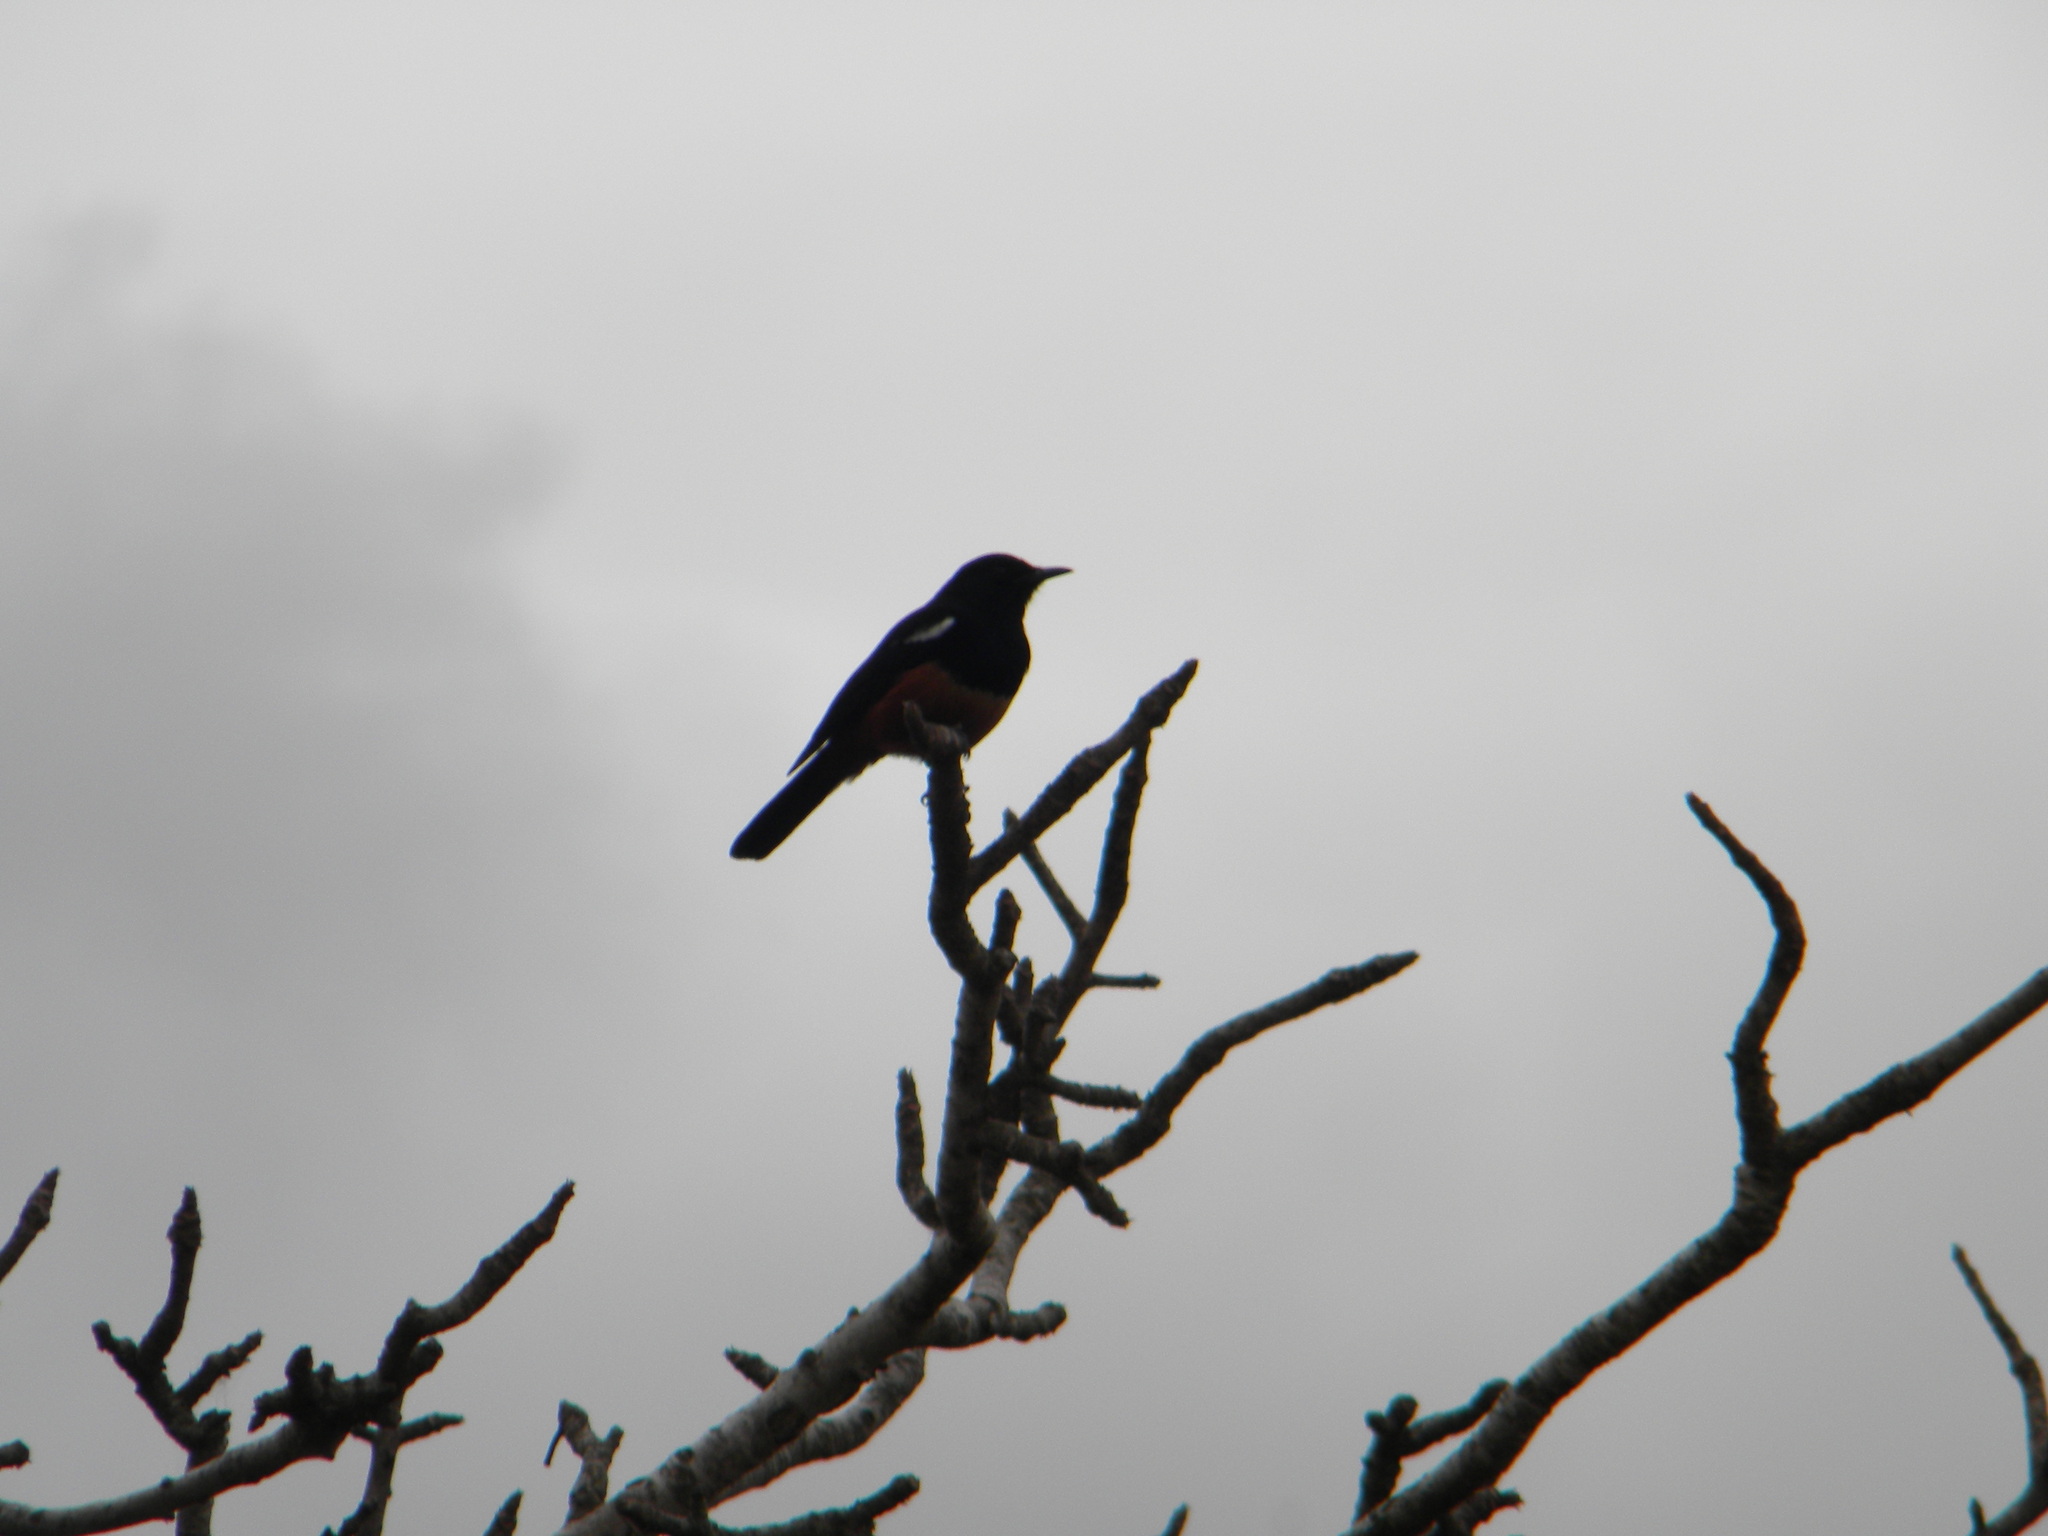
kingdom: Animalia
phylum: Chordata
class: Aves
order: Passeriformes
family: Muscicapidae
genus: Thamnolaea
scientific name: Thamnolaea cinnamomeiventris
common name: Mocking cliff chat
